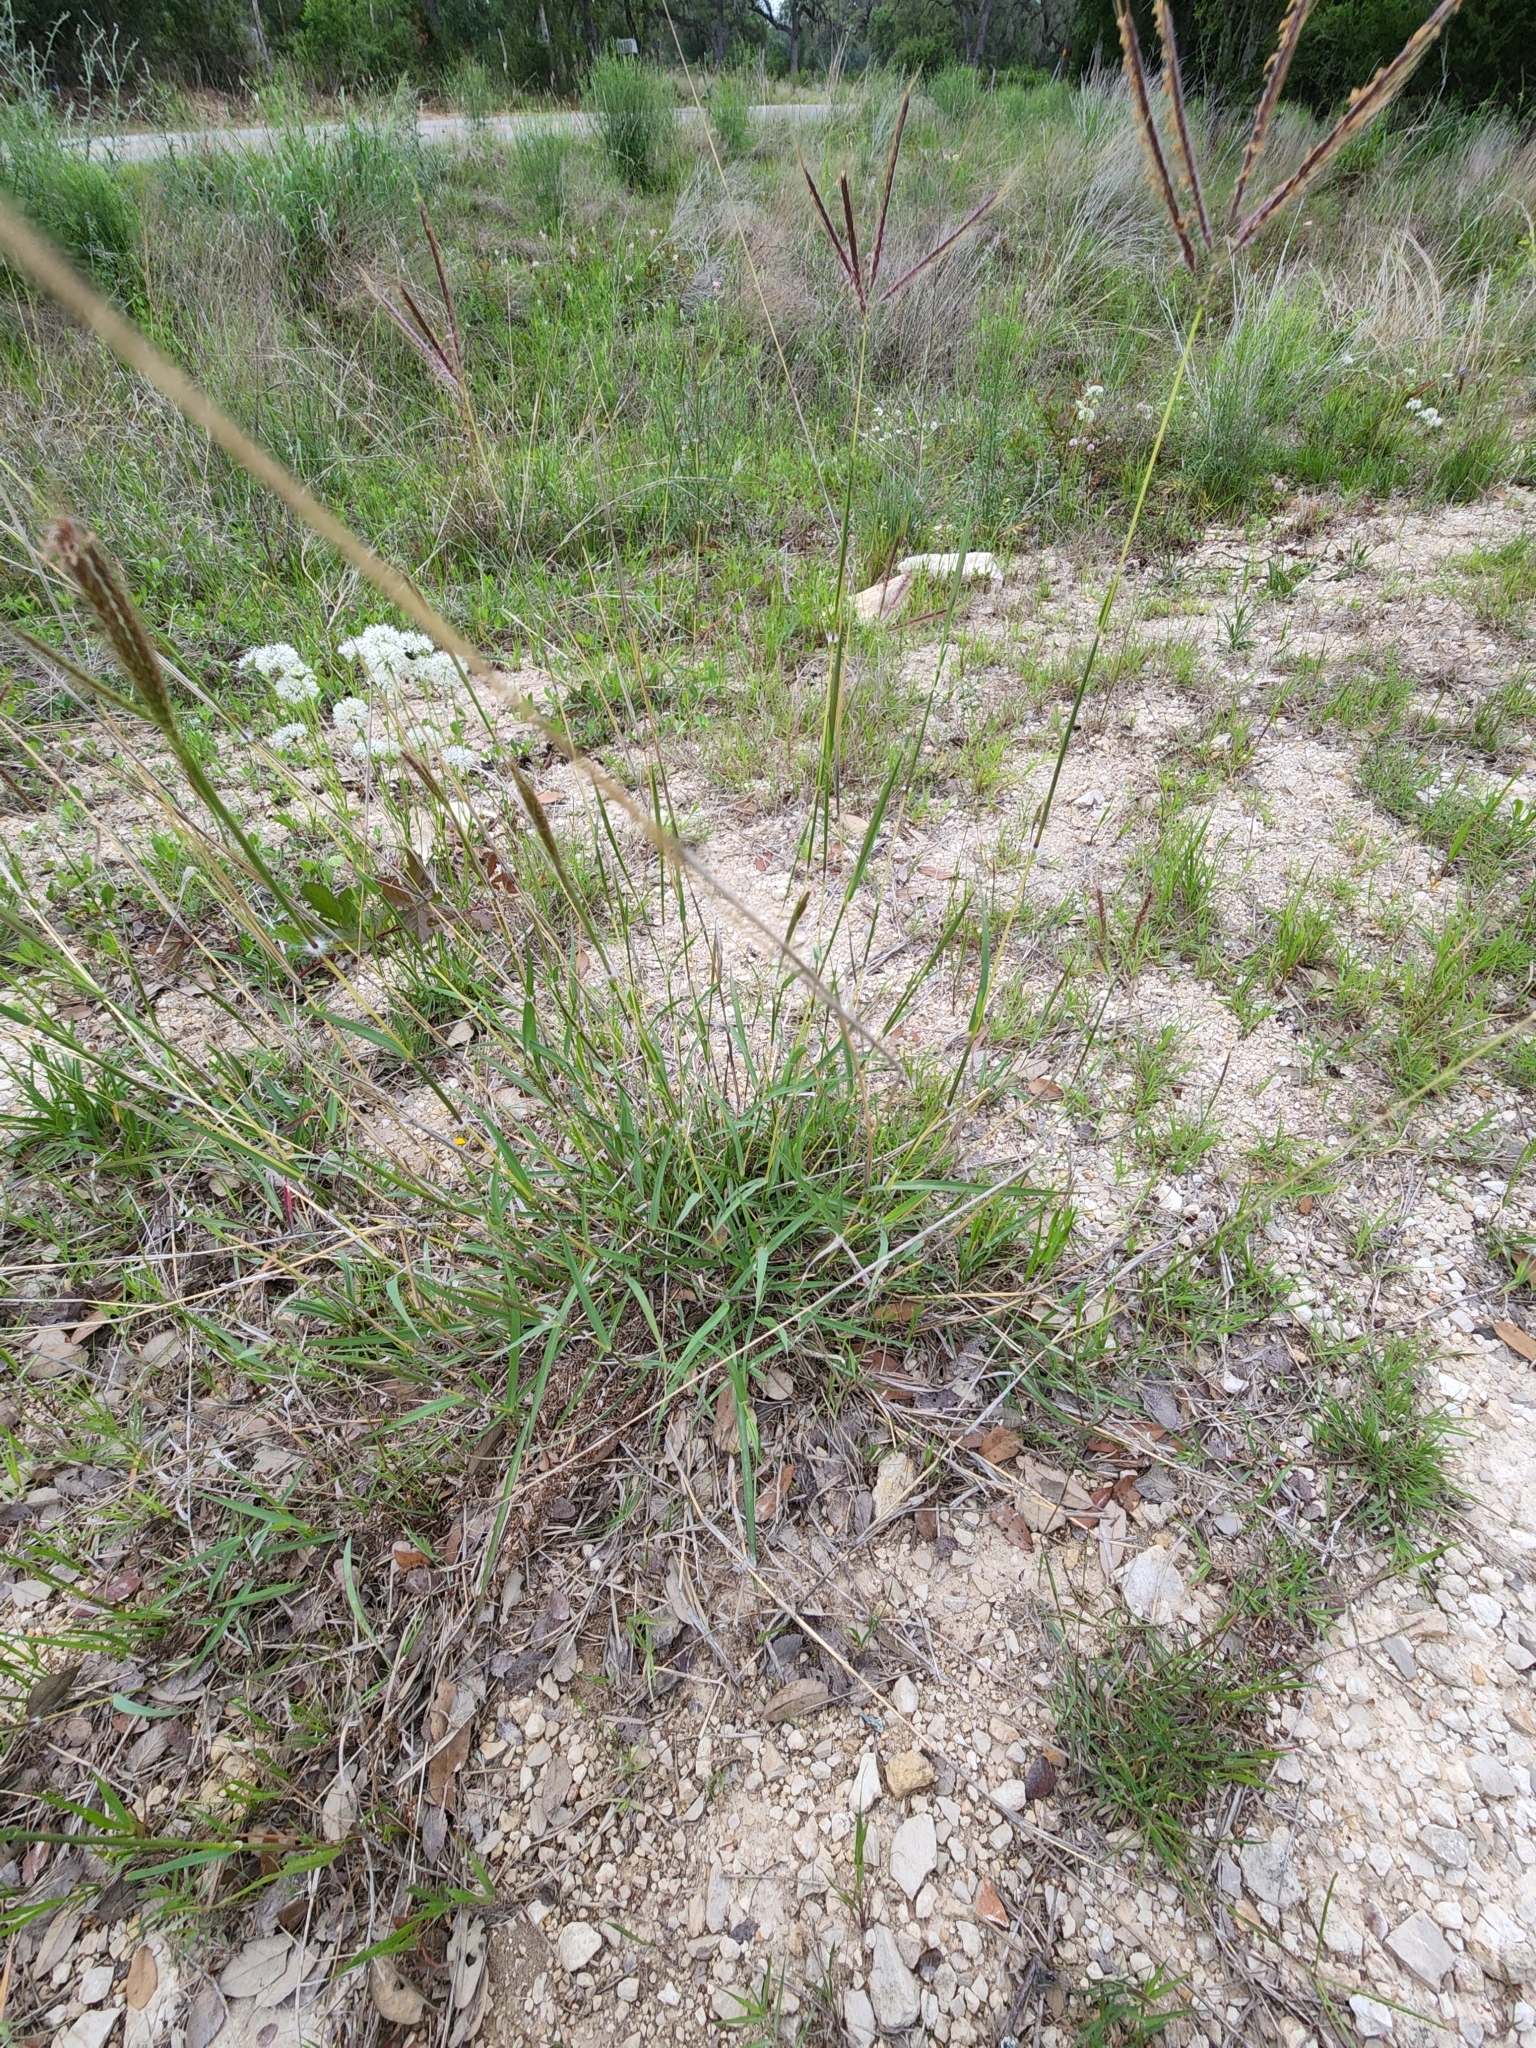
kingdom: Plantae
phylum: Tracheophyta
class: Liliopsida
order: Poales
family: Poaceae
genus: Dichanthium
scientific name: Dichanthium annulatum
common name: Kleberg's bluestem
